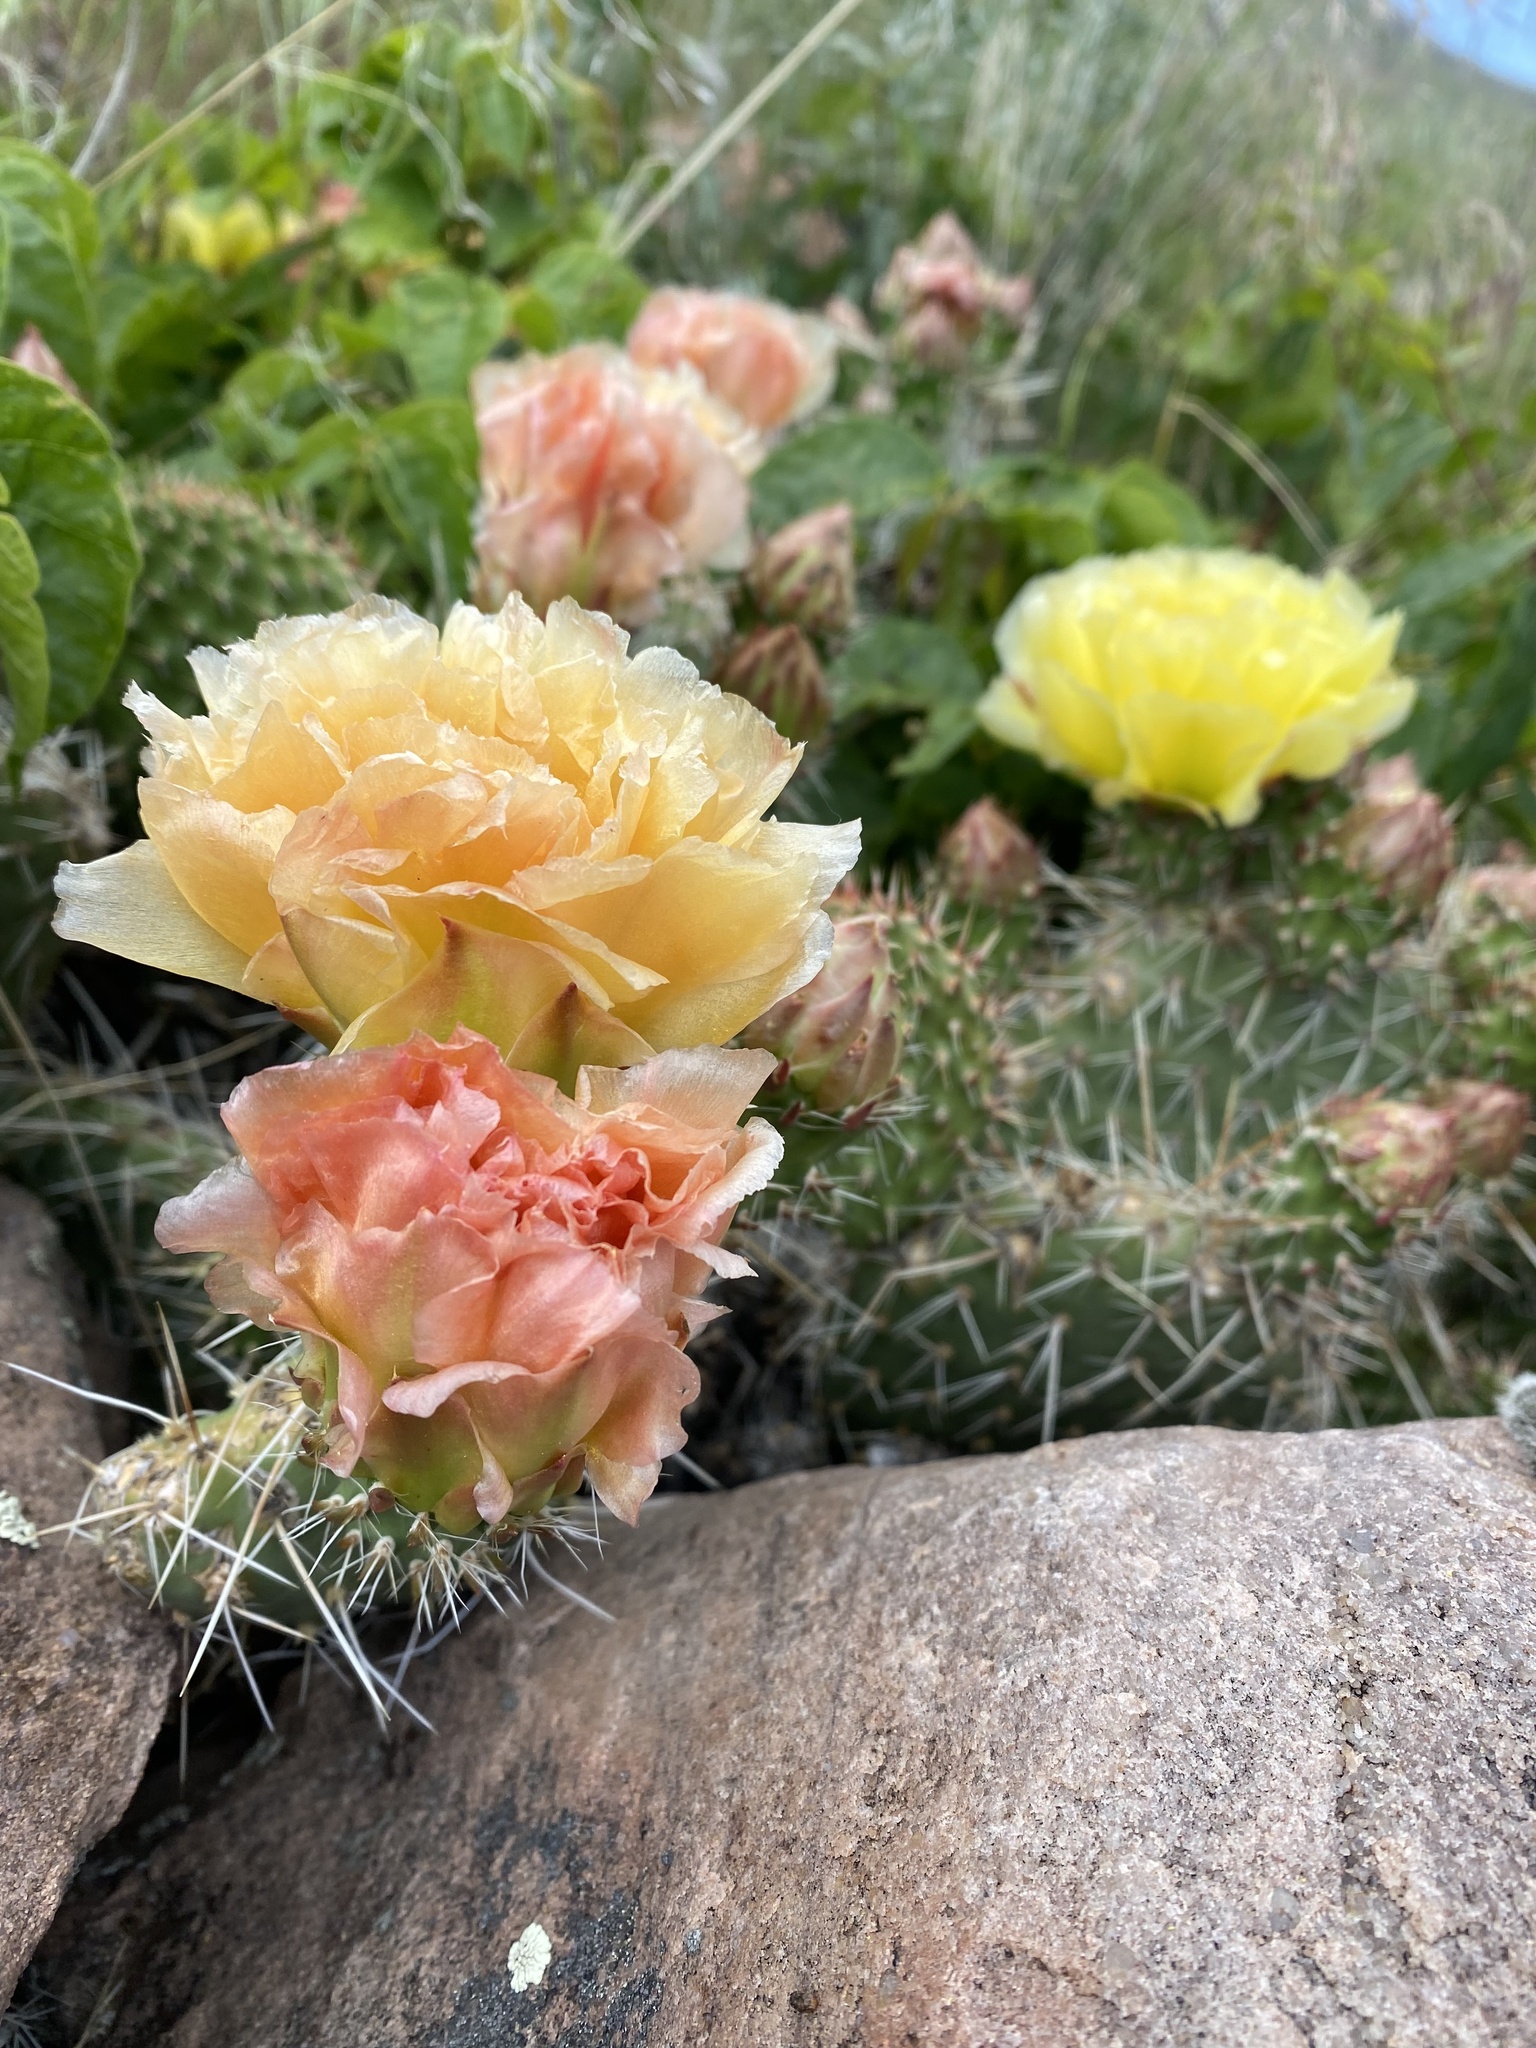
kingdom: Plantae
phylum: Tracheophyta
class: Magnoliopsida
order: Caryophyllales
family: Cactaceae
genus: Opuntia
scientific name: Opuntia polyacantha
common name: Plains prickly-pear
